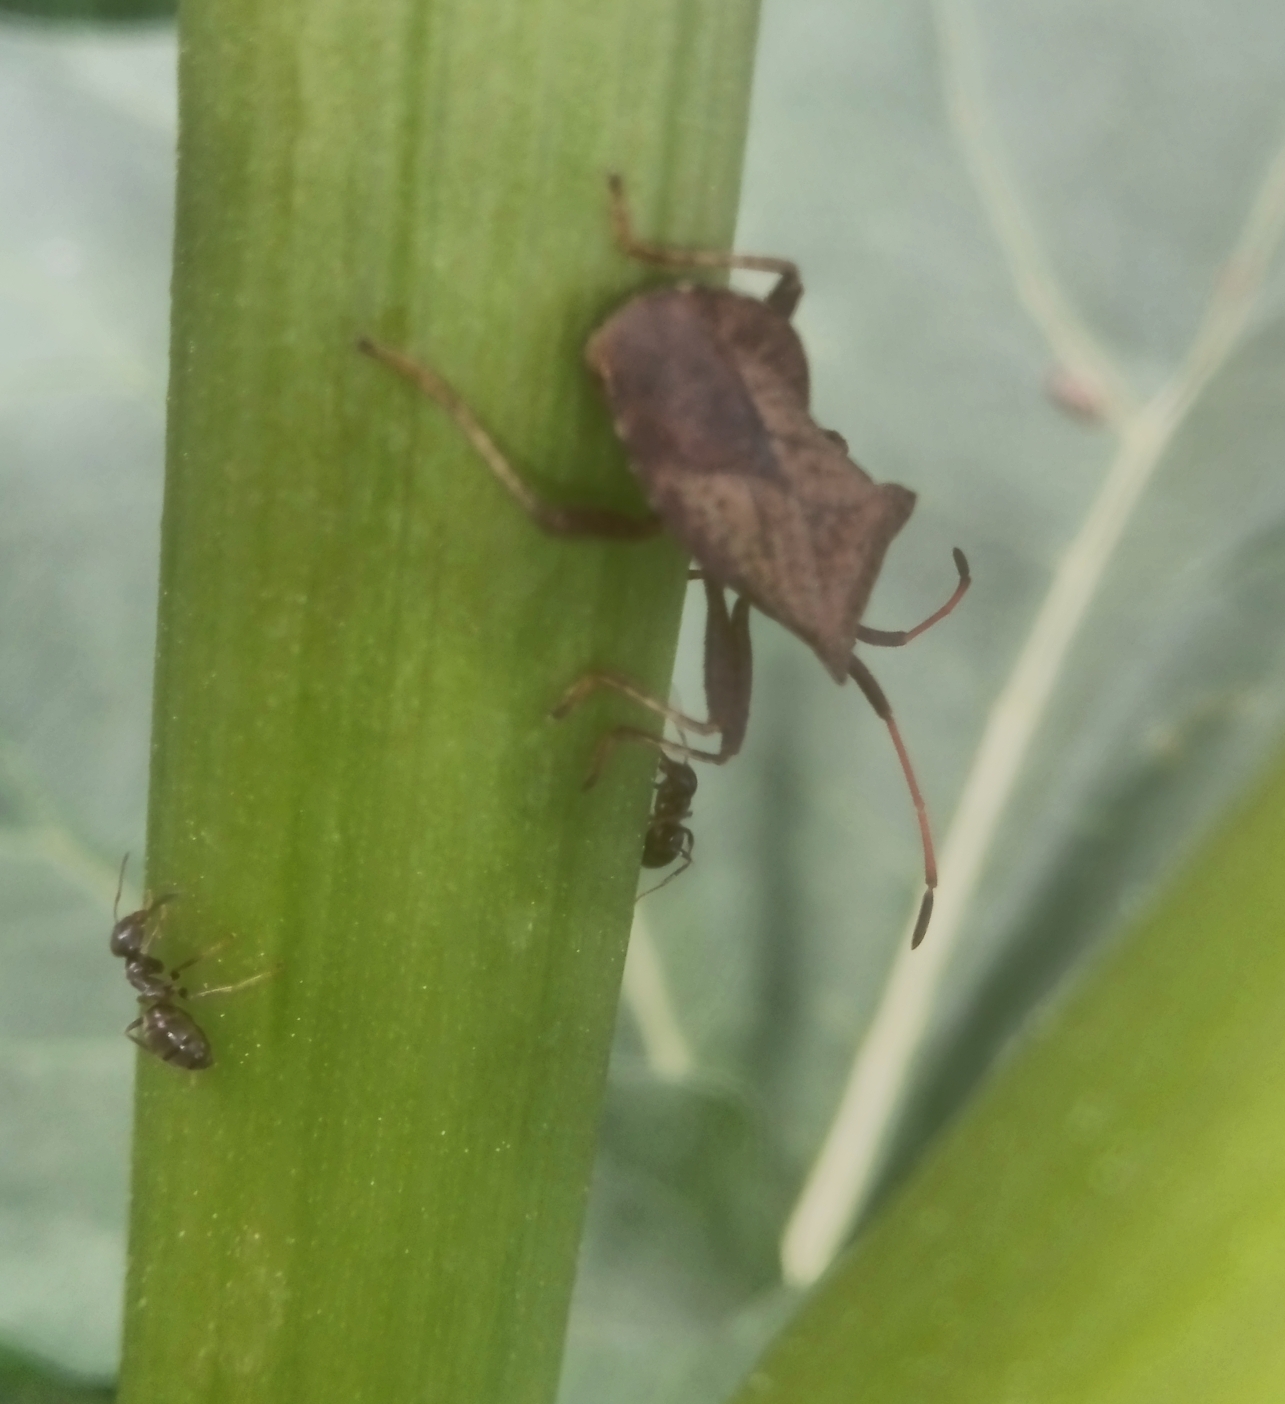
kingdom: Animalia
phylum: Arthropoda
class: Insecta
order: Hemiptera
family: Coreidae
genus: Coreus
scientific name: Coreus marginatus
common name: Dock bug
